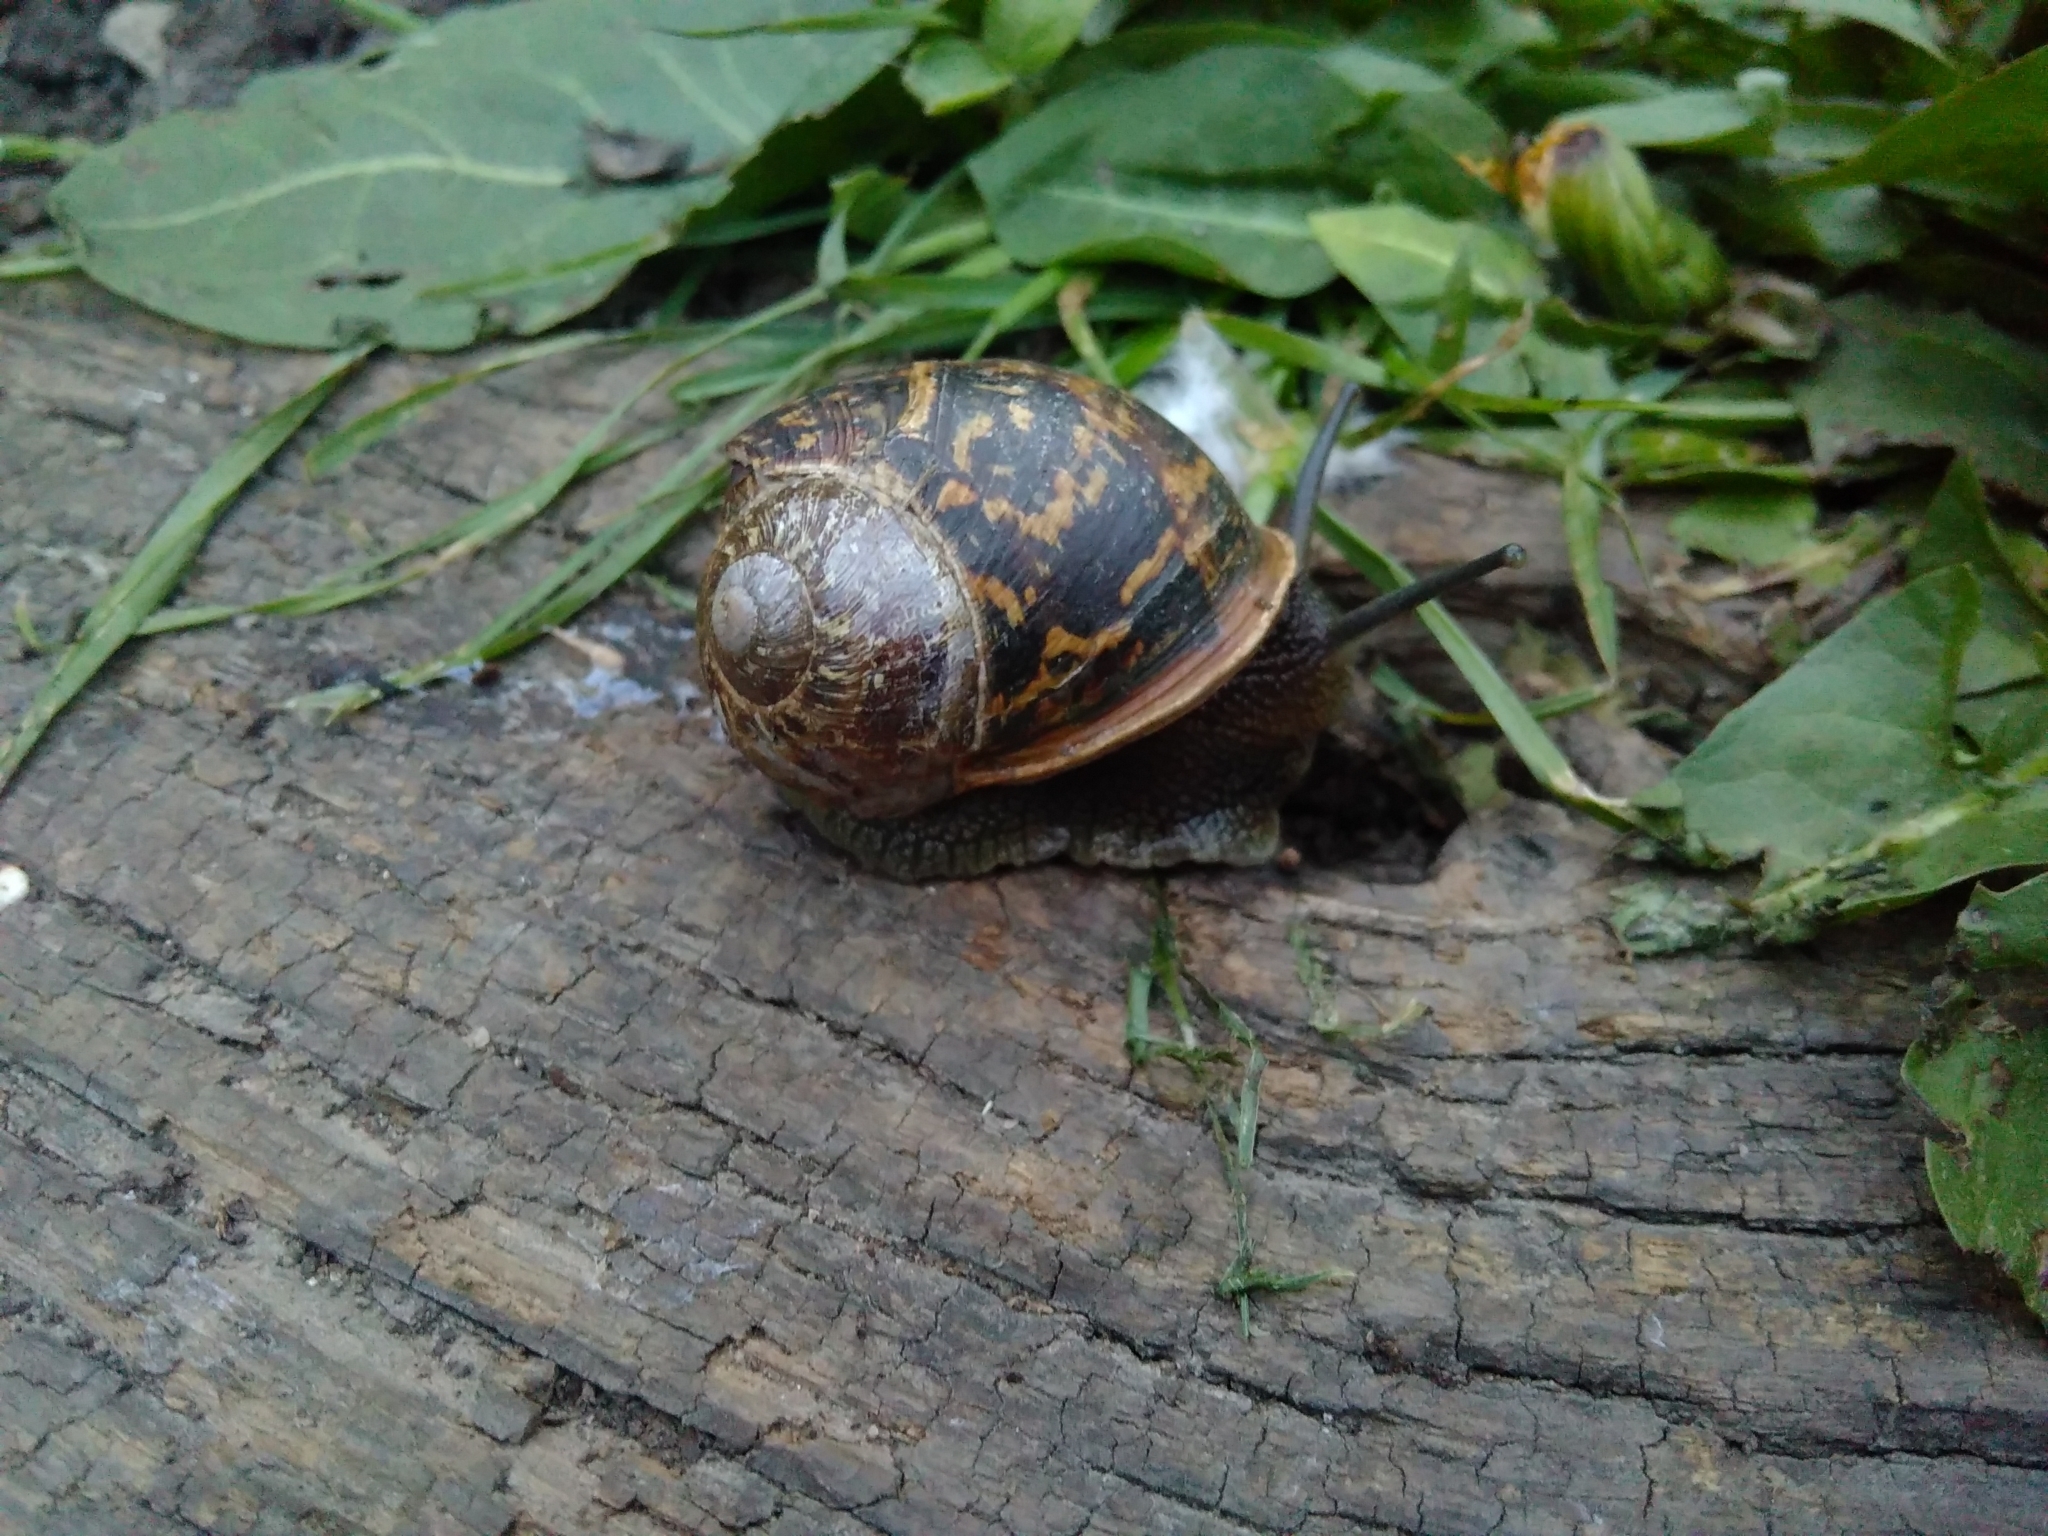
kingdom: Animalia
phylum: Mollusca
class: Gastropoda
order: Stylommatophora
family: Helicidae
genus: Cornu
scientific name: Cornu aspersum
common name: Brown garden snail
